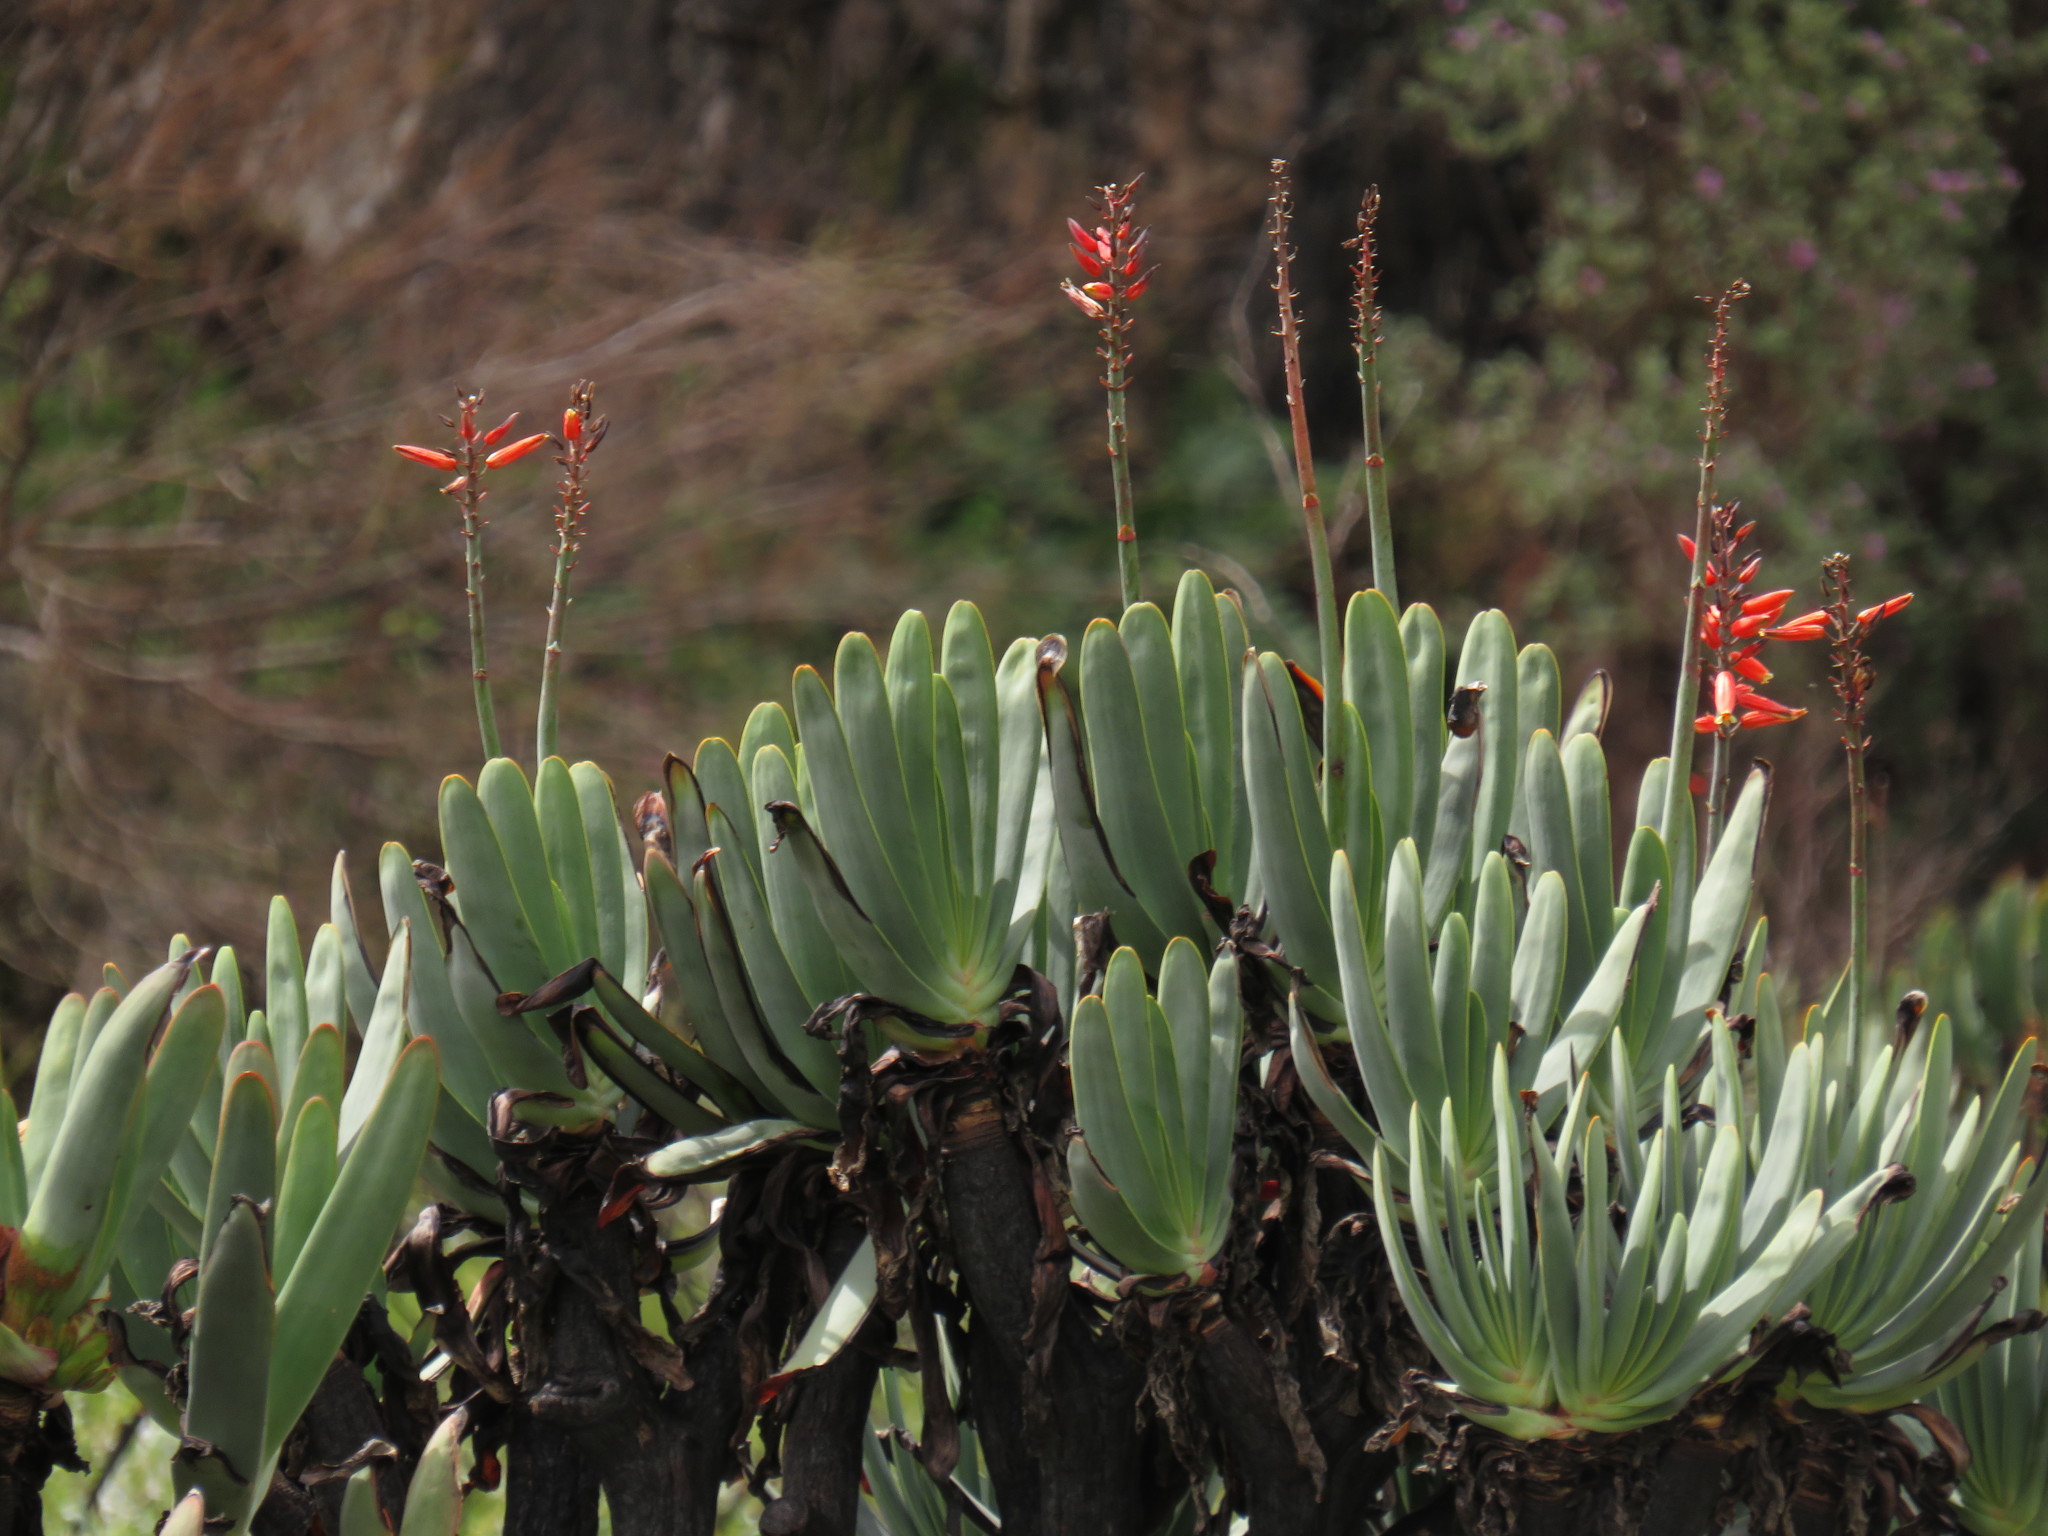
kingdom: Plantae
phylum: Tracheophyta
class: Liliopsida
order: Asparagales
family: Asphodelaceae
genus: Kumara
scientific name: Kumara plicatilis
